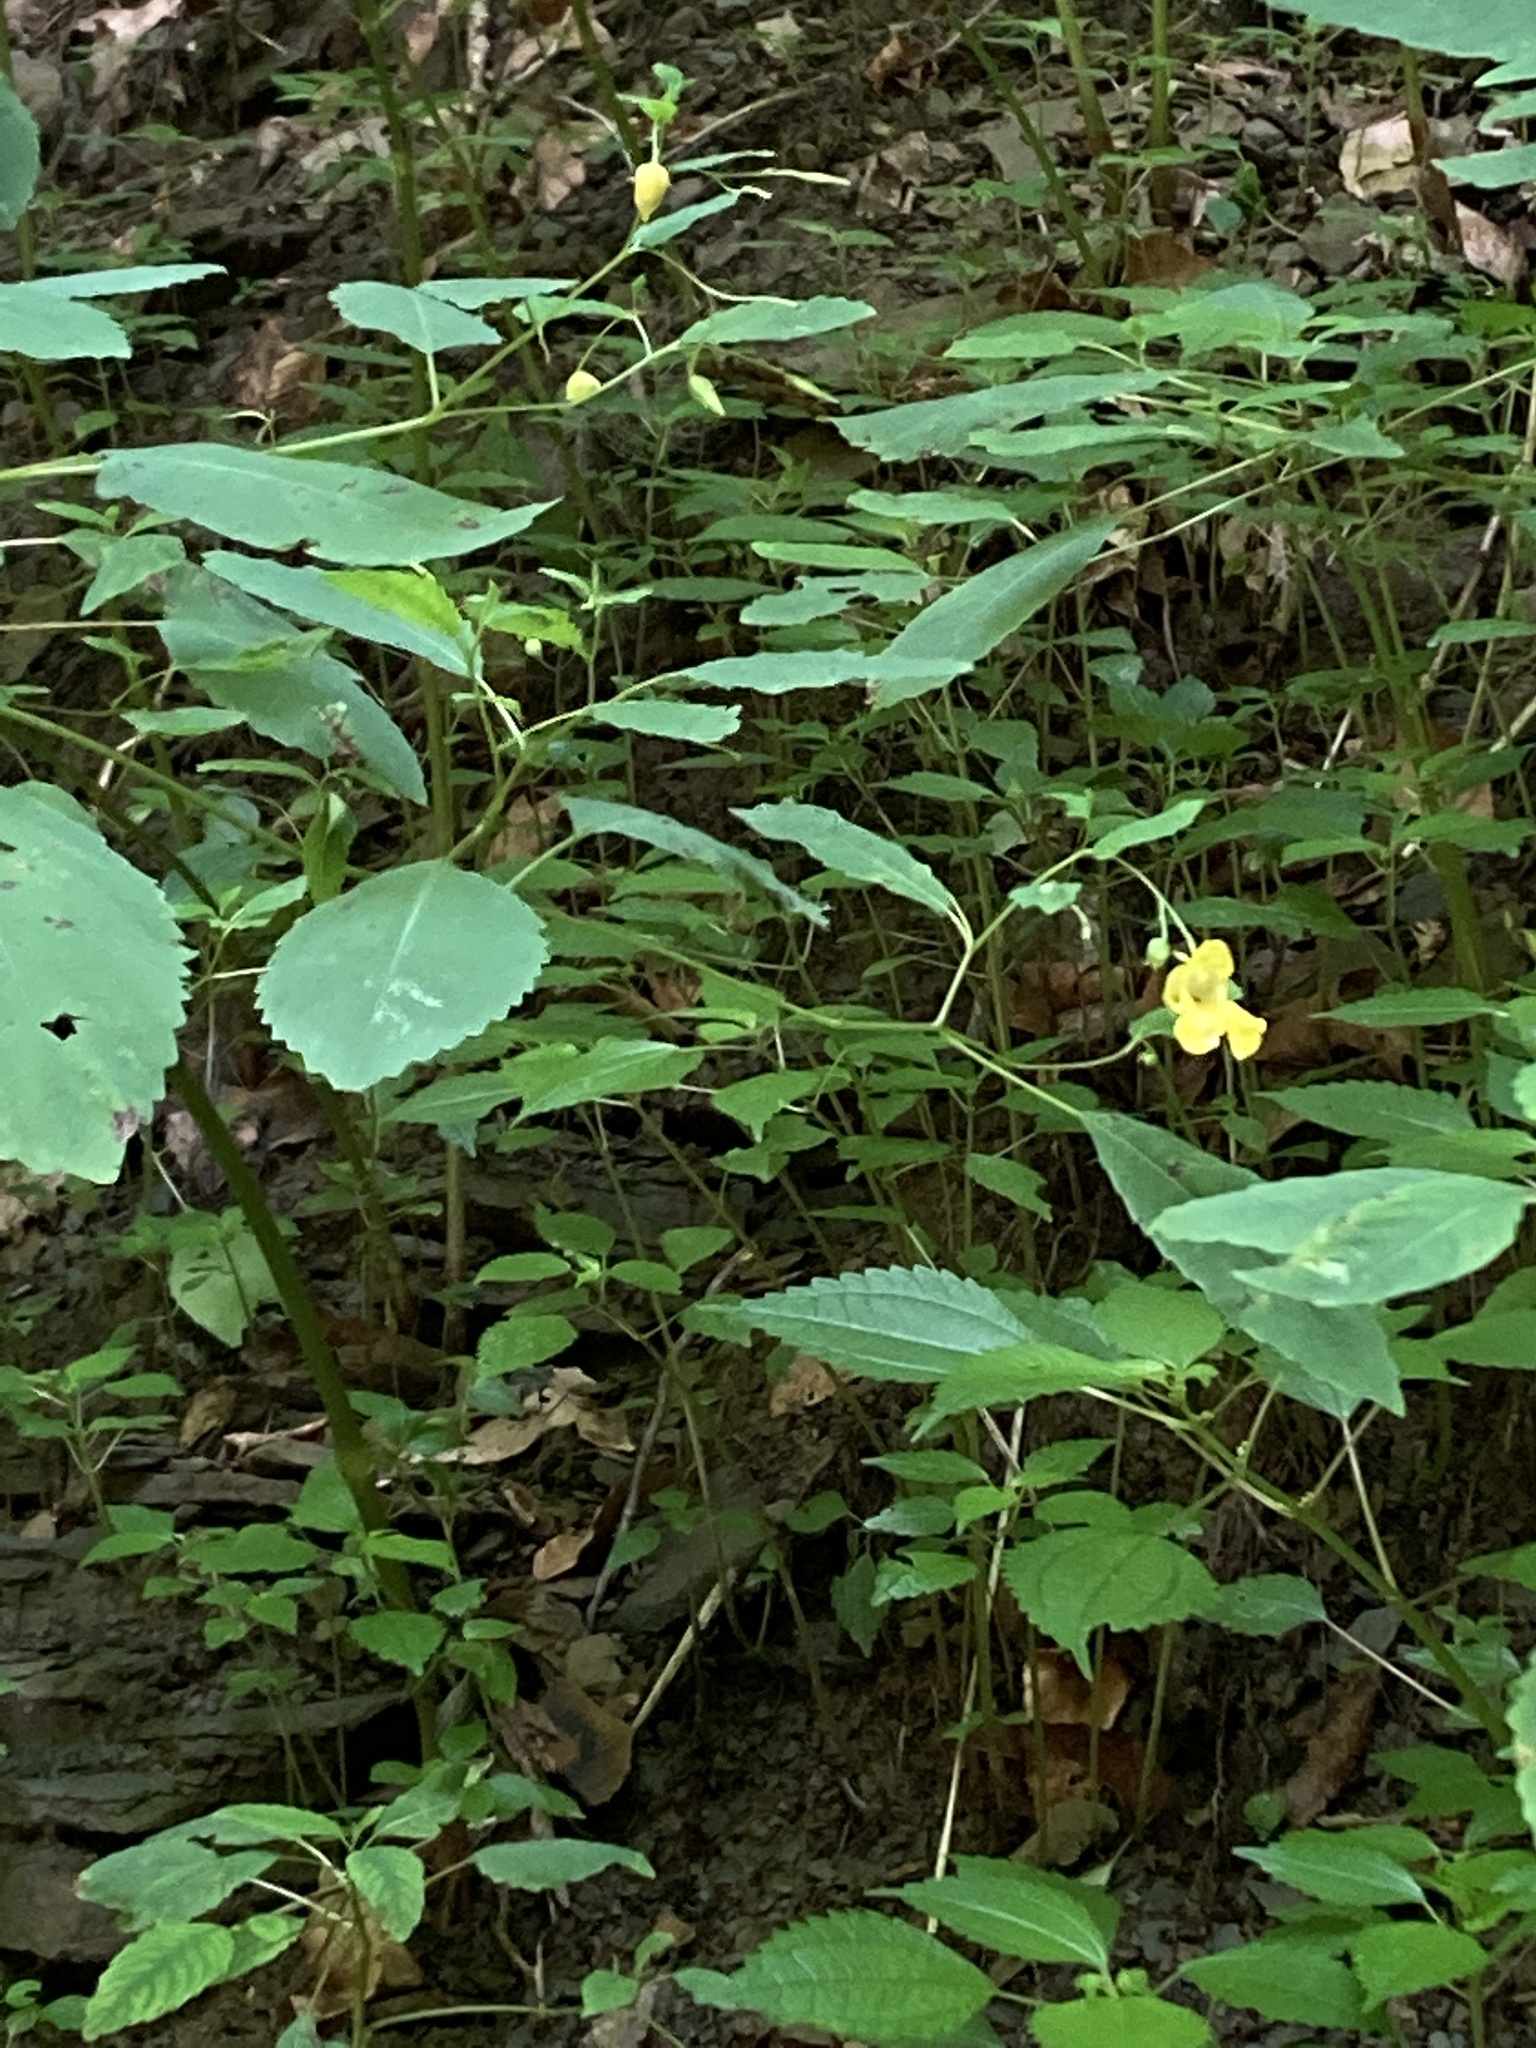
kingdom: Plantae
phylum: Tracheophyta
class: Magnoliopsida
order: Ericales
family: Balsaminaceae
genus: Impatiens
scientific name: Impatiens pallida
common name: Pale snapweed
